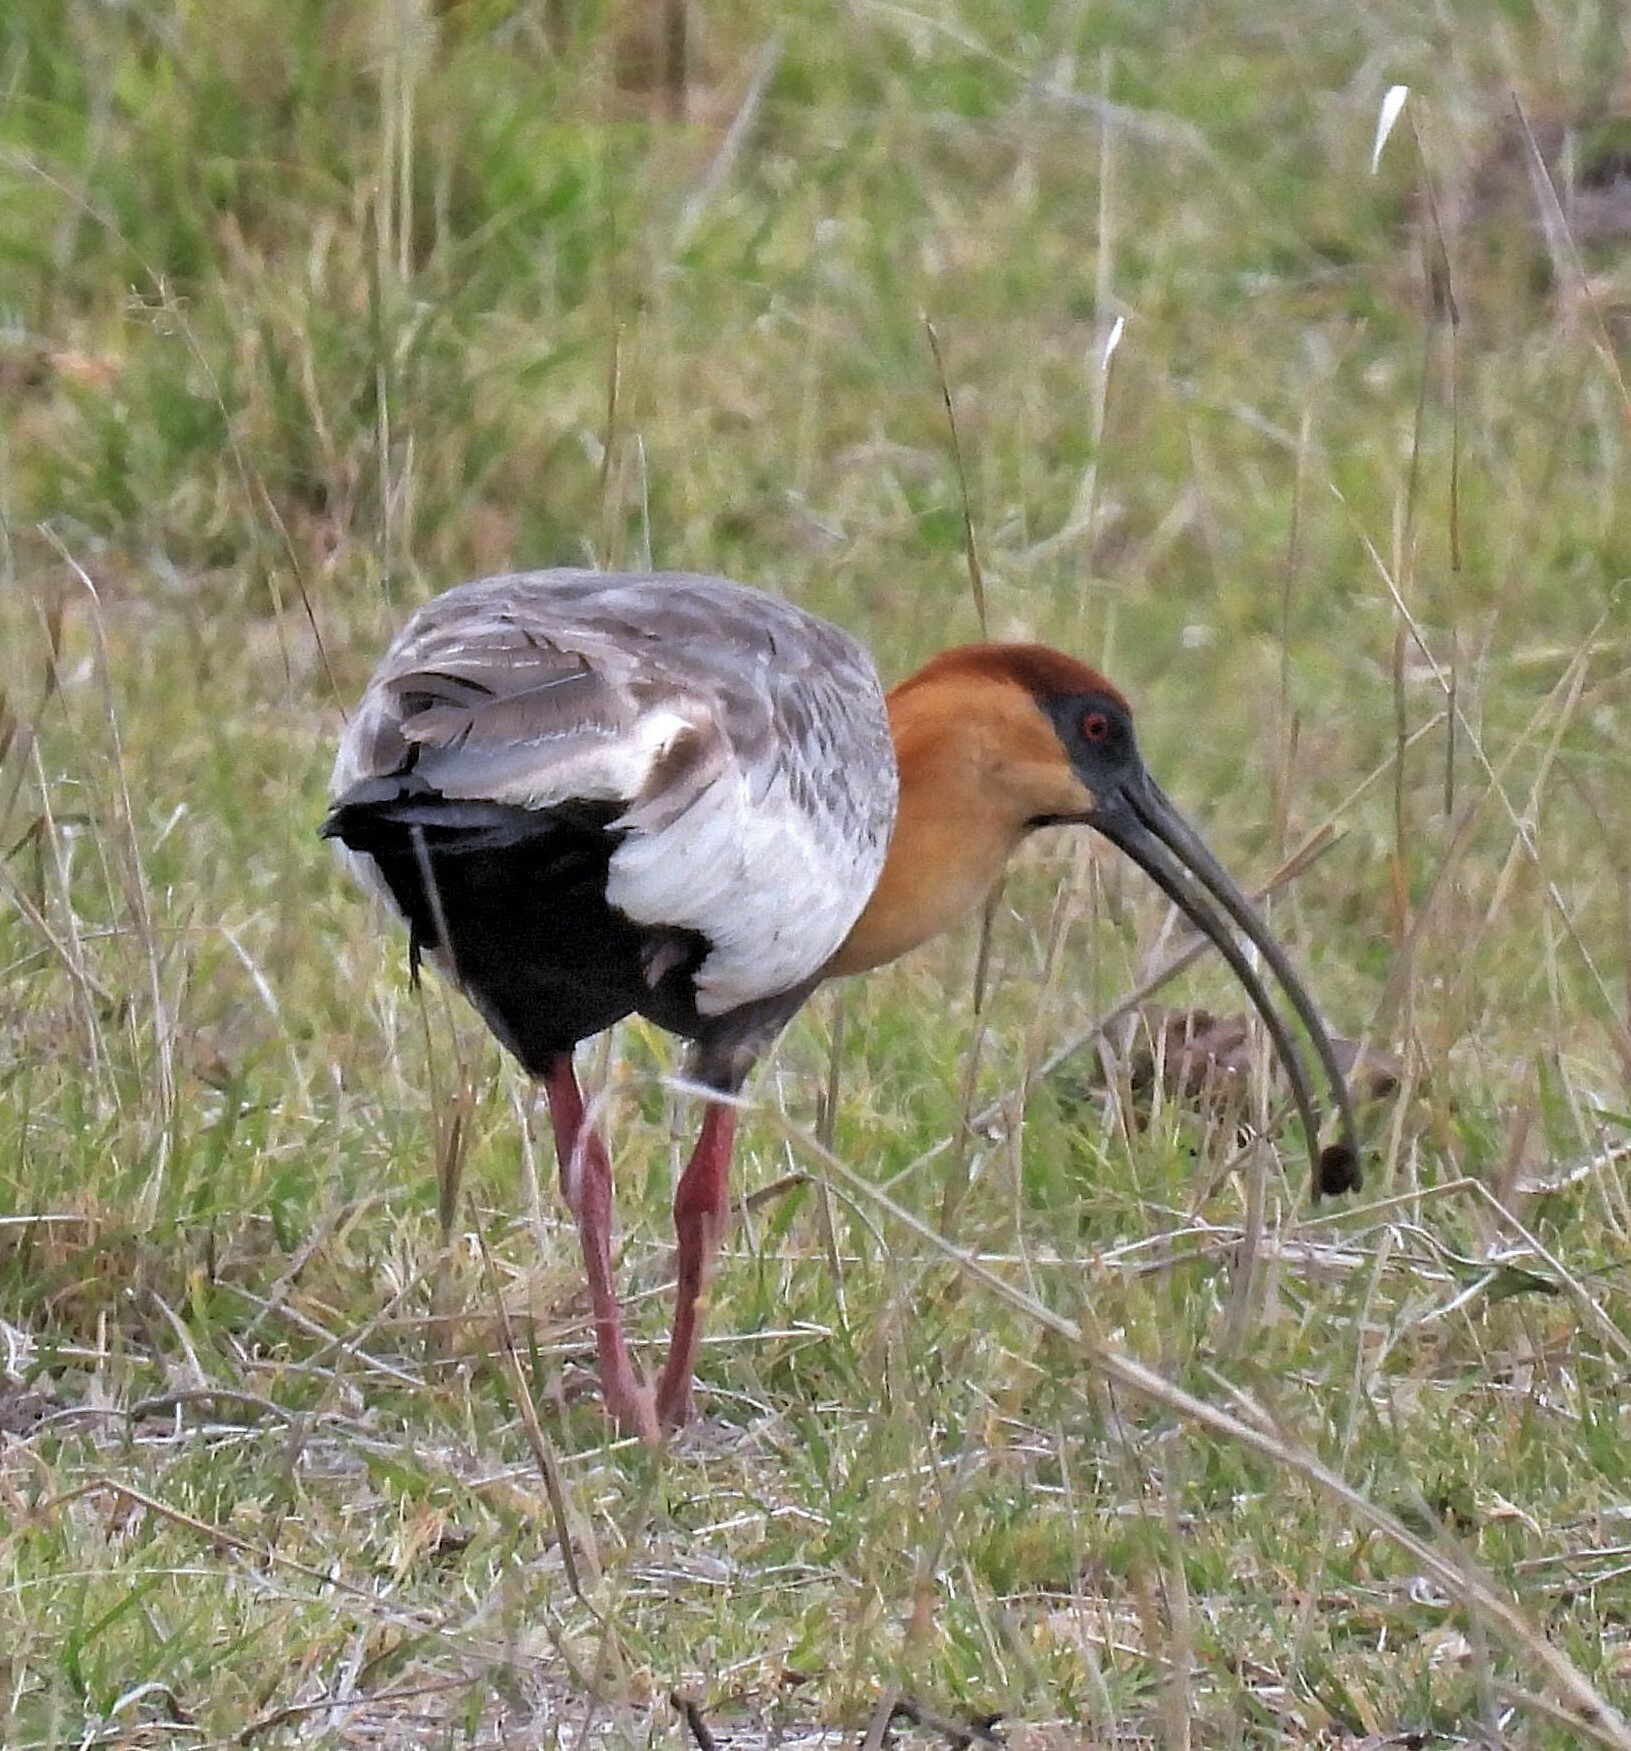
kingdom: Animalia
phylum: Chordata
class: Aves
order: Pelecaniformes
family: Threskiornithidae
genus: Theristicus
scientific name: Theristicus caudatus
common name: Buff-necked ibis
